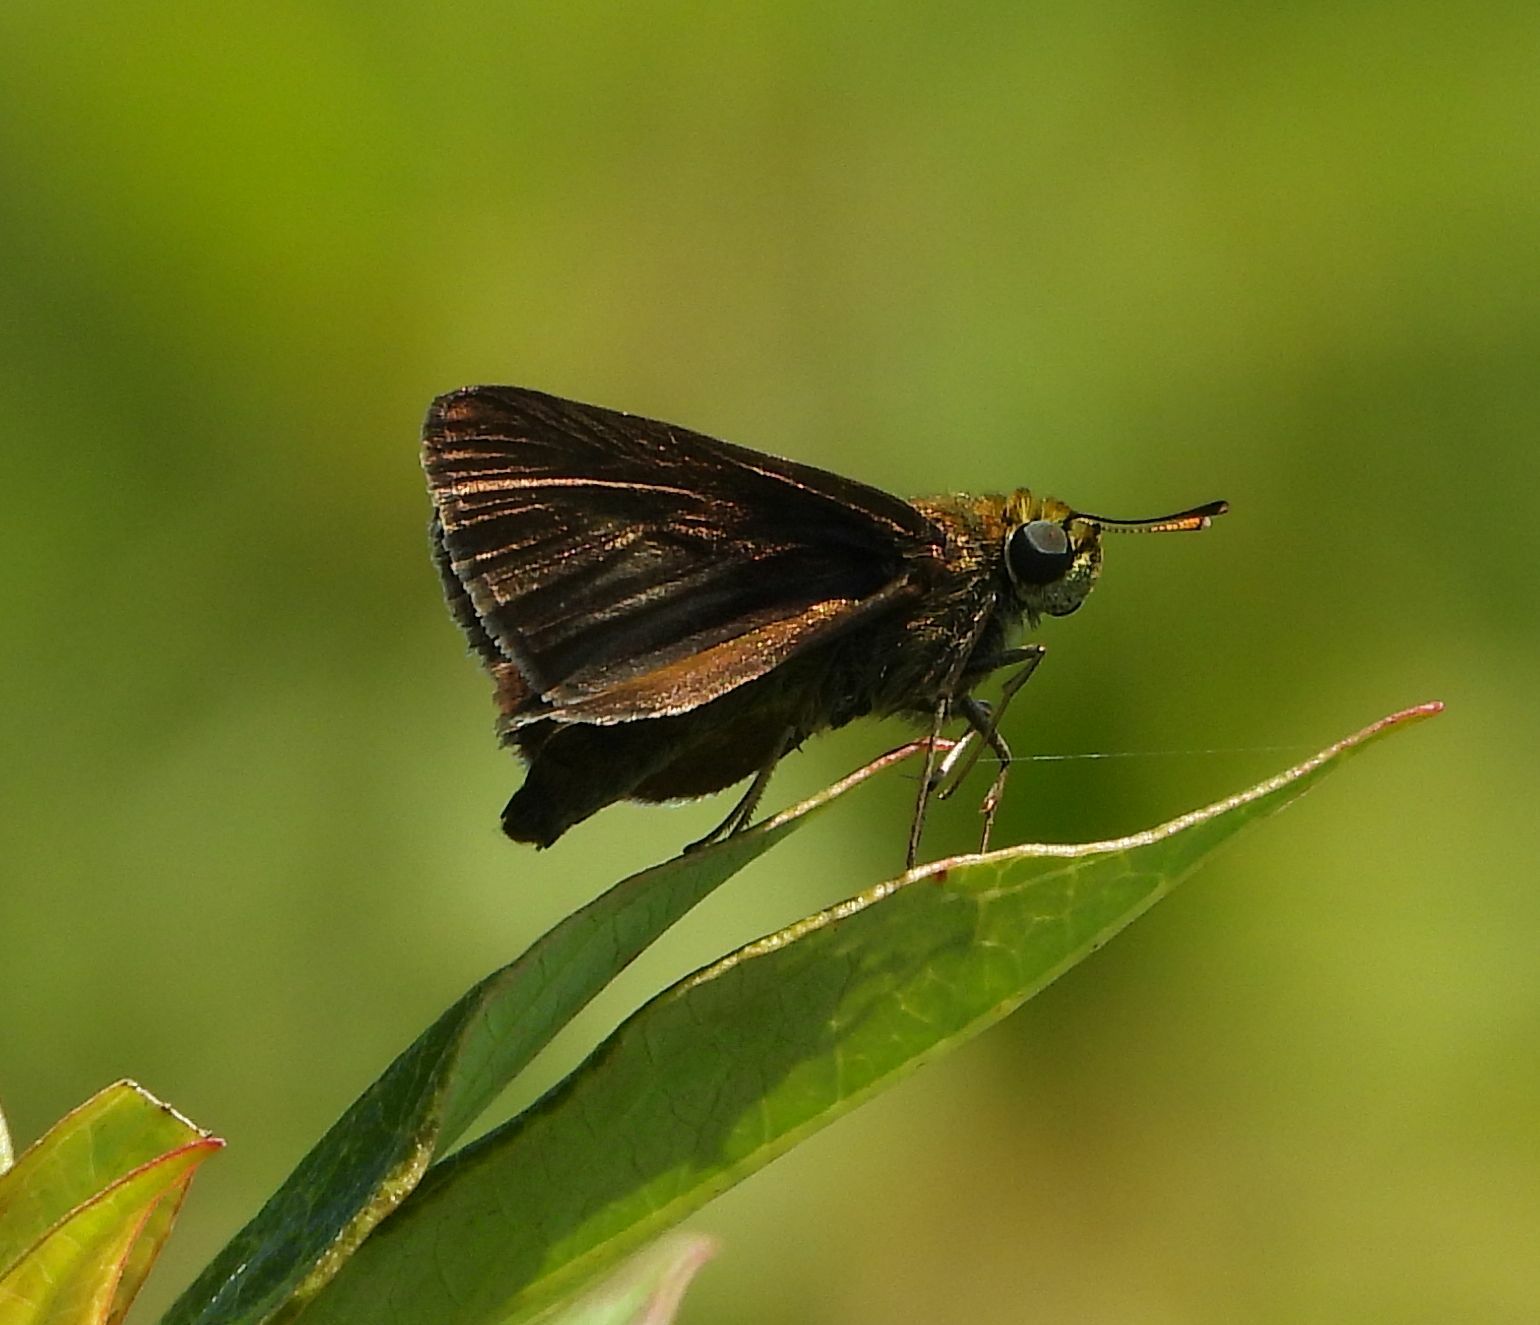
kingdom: Animalia
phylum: Arthropoda
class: Insecta
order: Lepidoptera
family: Hesperiidae
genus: Euphyes
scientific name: Euphyes vestris
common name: Dun skipper
